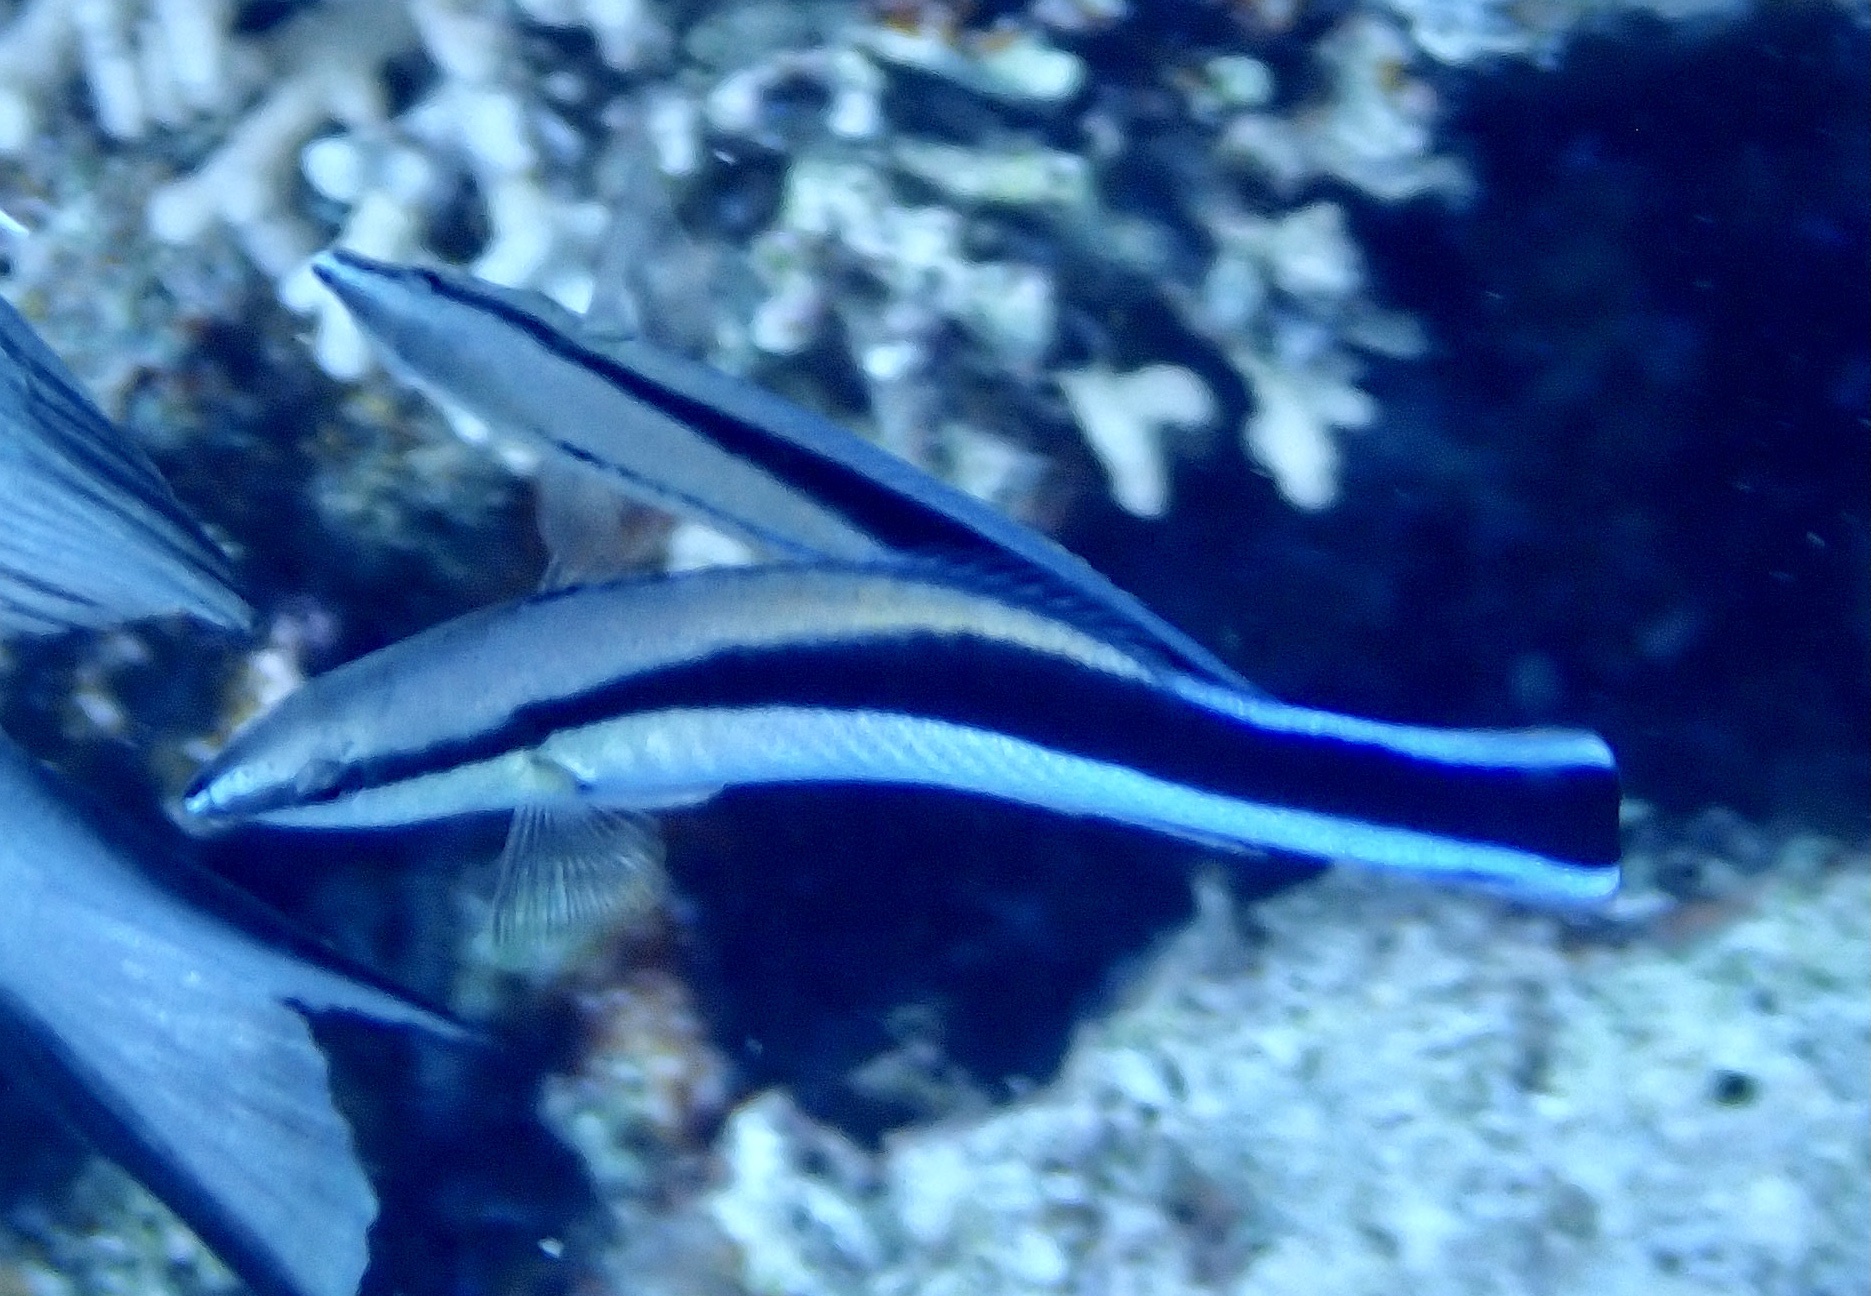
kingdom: Animalia
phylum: Chordata
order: Perciformes
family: Labridae
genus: Labroides
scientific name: Labroides dimidiatus
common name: Blue diesel wrasse
